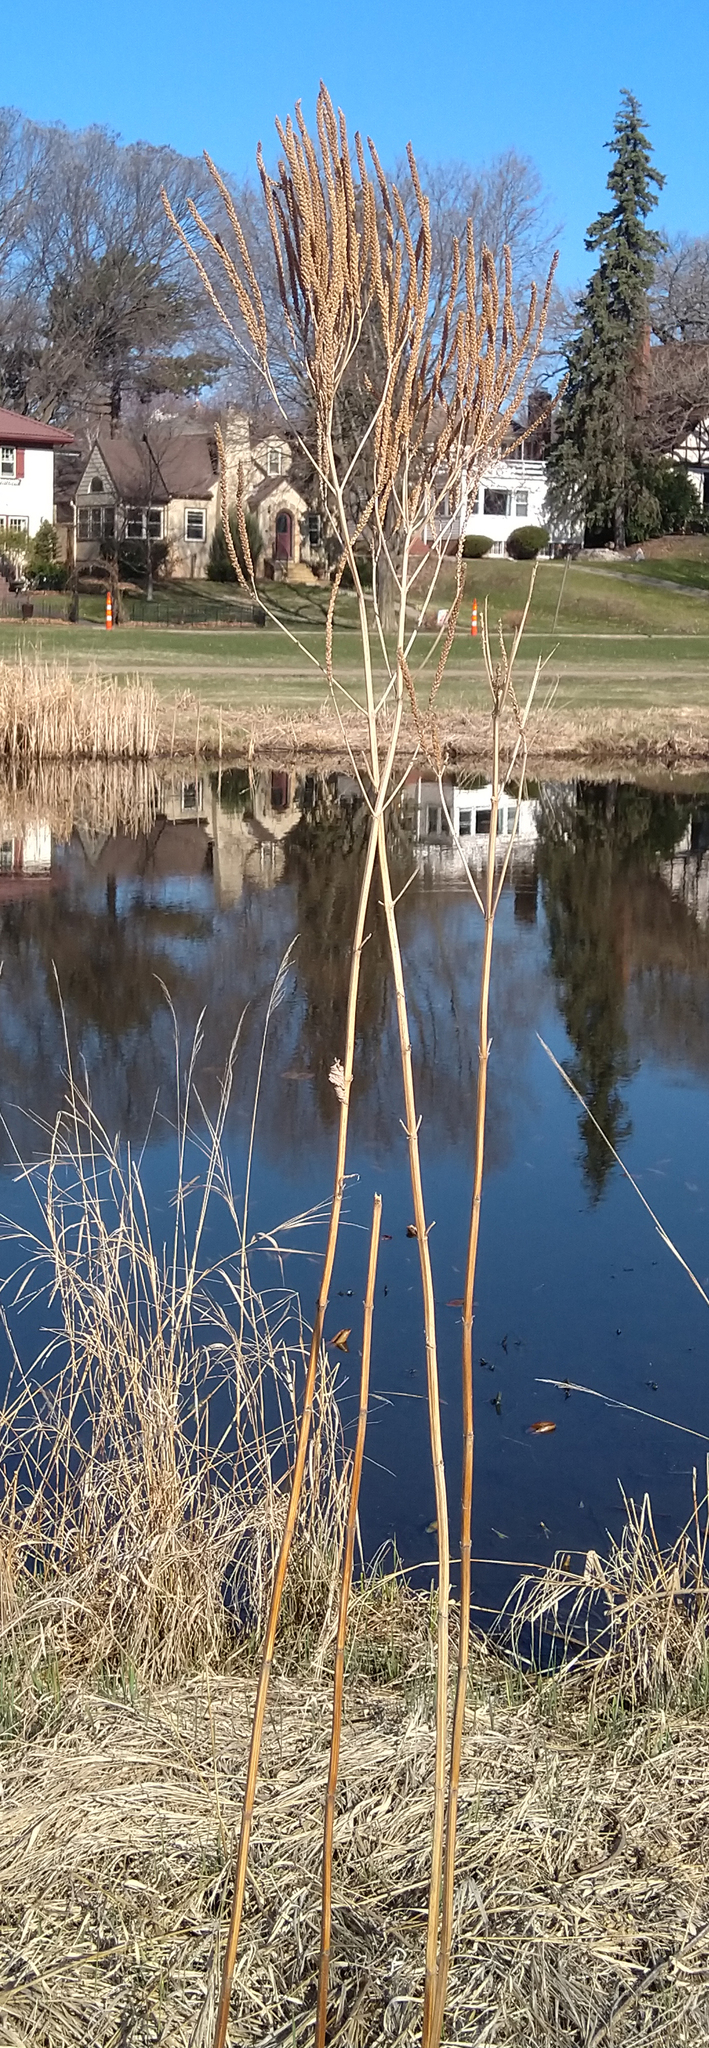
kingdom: Plantae
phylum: Tracheophyta
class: Magnoliopsida
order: Lamiales
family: Verbenaceae
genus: Verbena
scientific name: Verbena hastata
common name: American blue vervain
